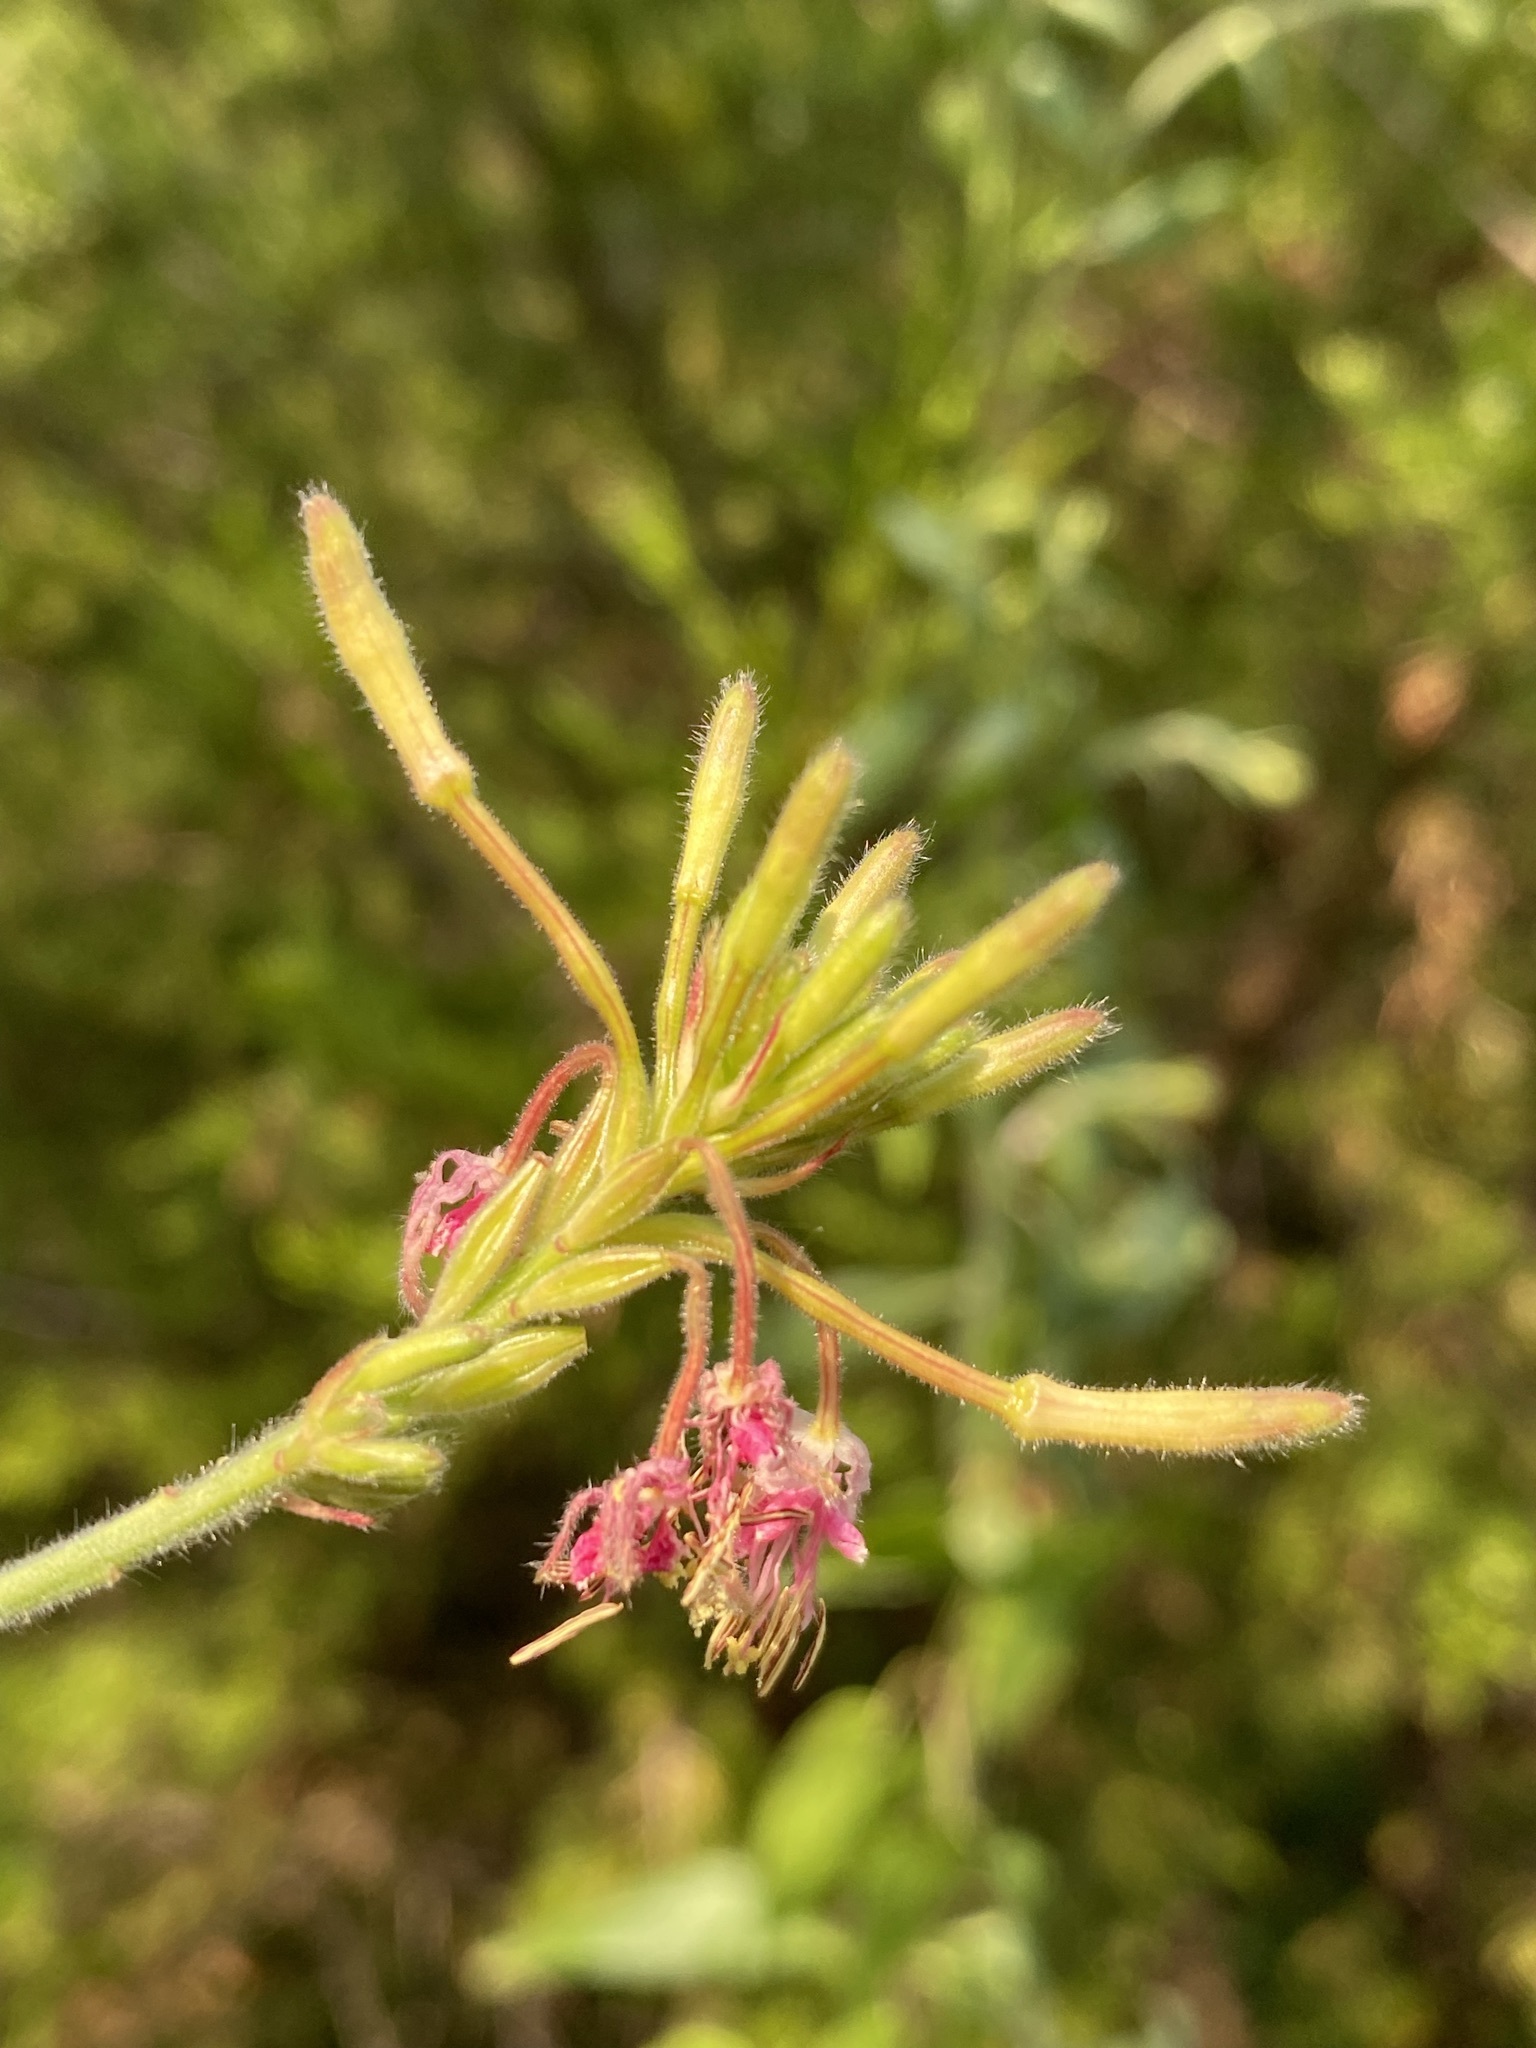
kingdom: Plantae
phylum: Tracheophyta
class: Magnoliopsida
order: Myrtales
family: Onagraceae
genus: Oenothera
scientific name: Oenothera gaura
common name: Biennial beeblossom
